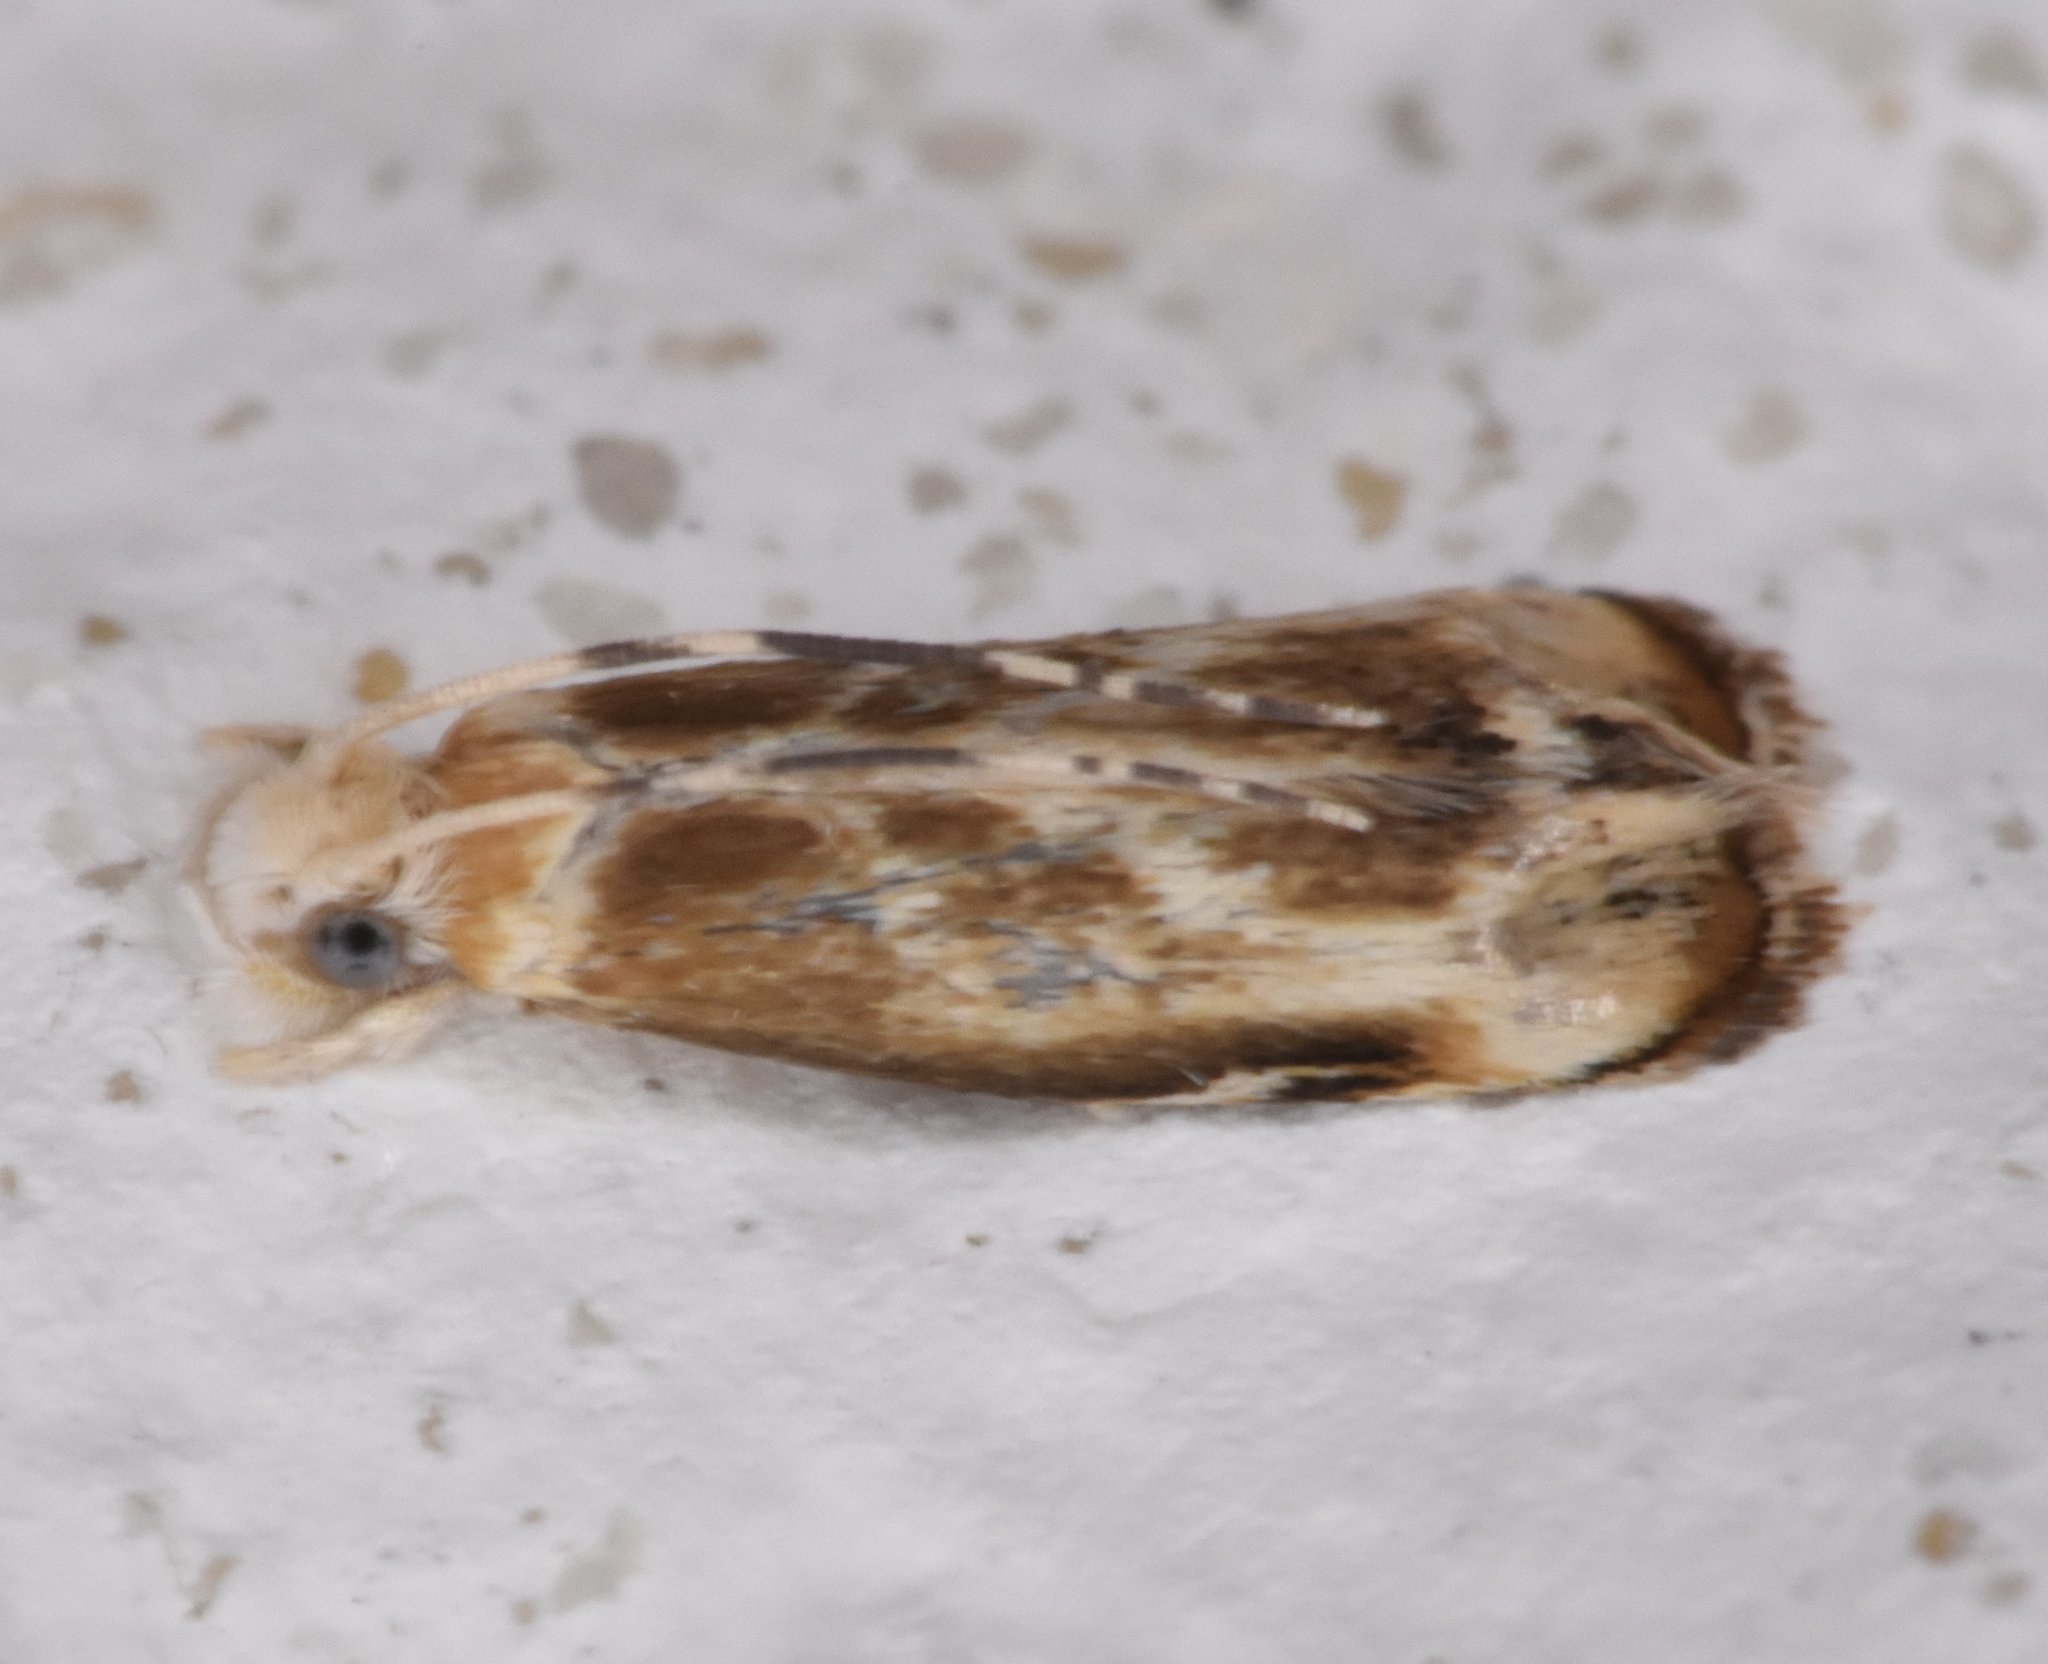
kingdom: Animalia
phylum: Arthropoda
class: Insecta
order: Lepidoptera
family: Dryadaulidae
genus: Dryadaula
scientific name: Dryadaula terpsichorella
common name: Dancing moth
